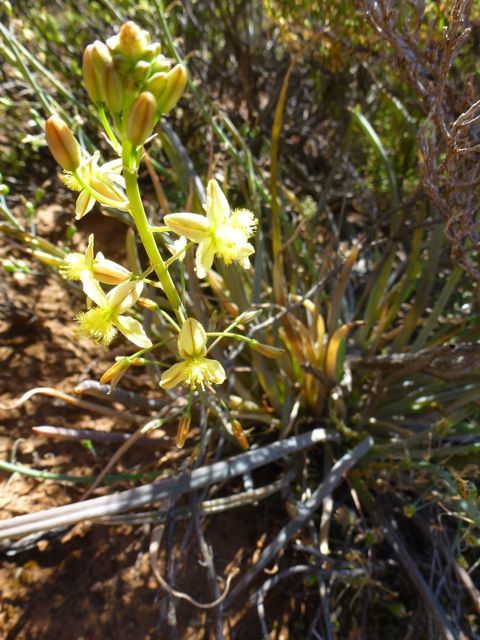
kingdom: Plantae
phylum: Tracheophyta
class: Liliopsida
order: Asparagales
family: Asphodelaceae
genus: Bulbine
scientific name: Bulbine frutescens
